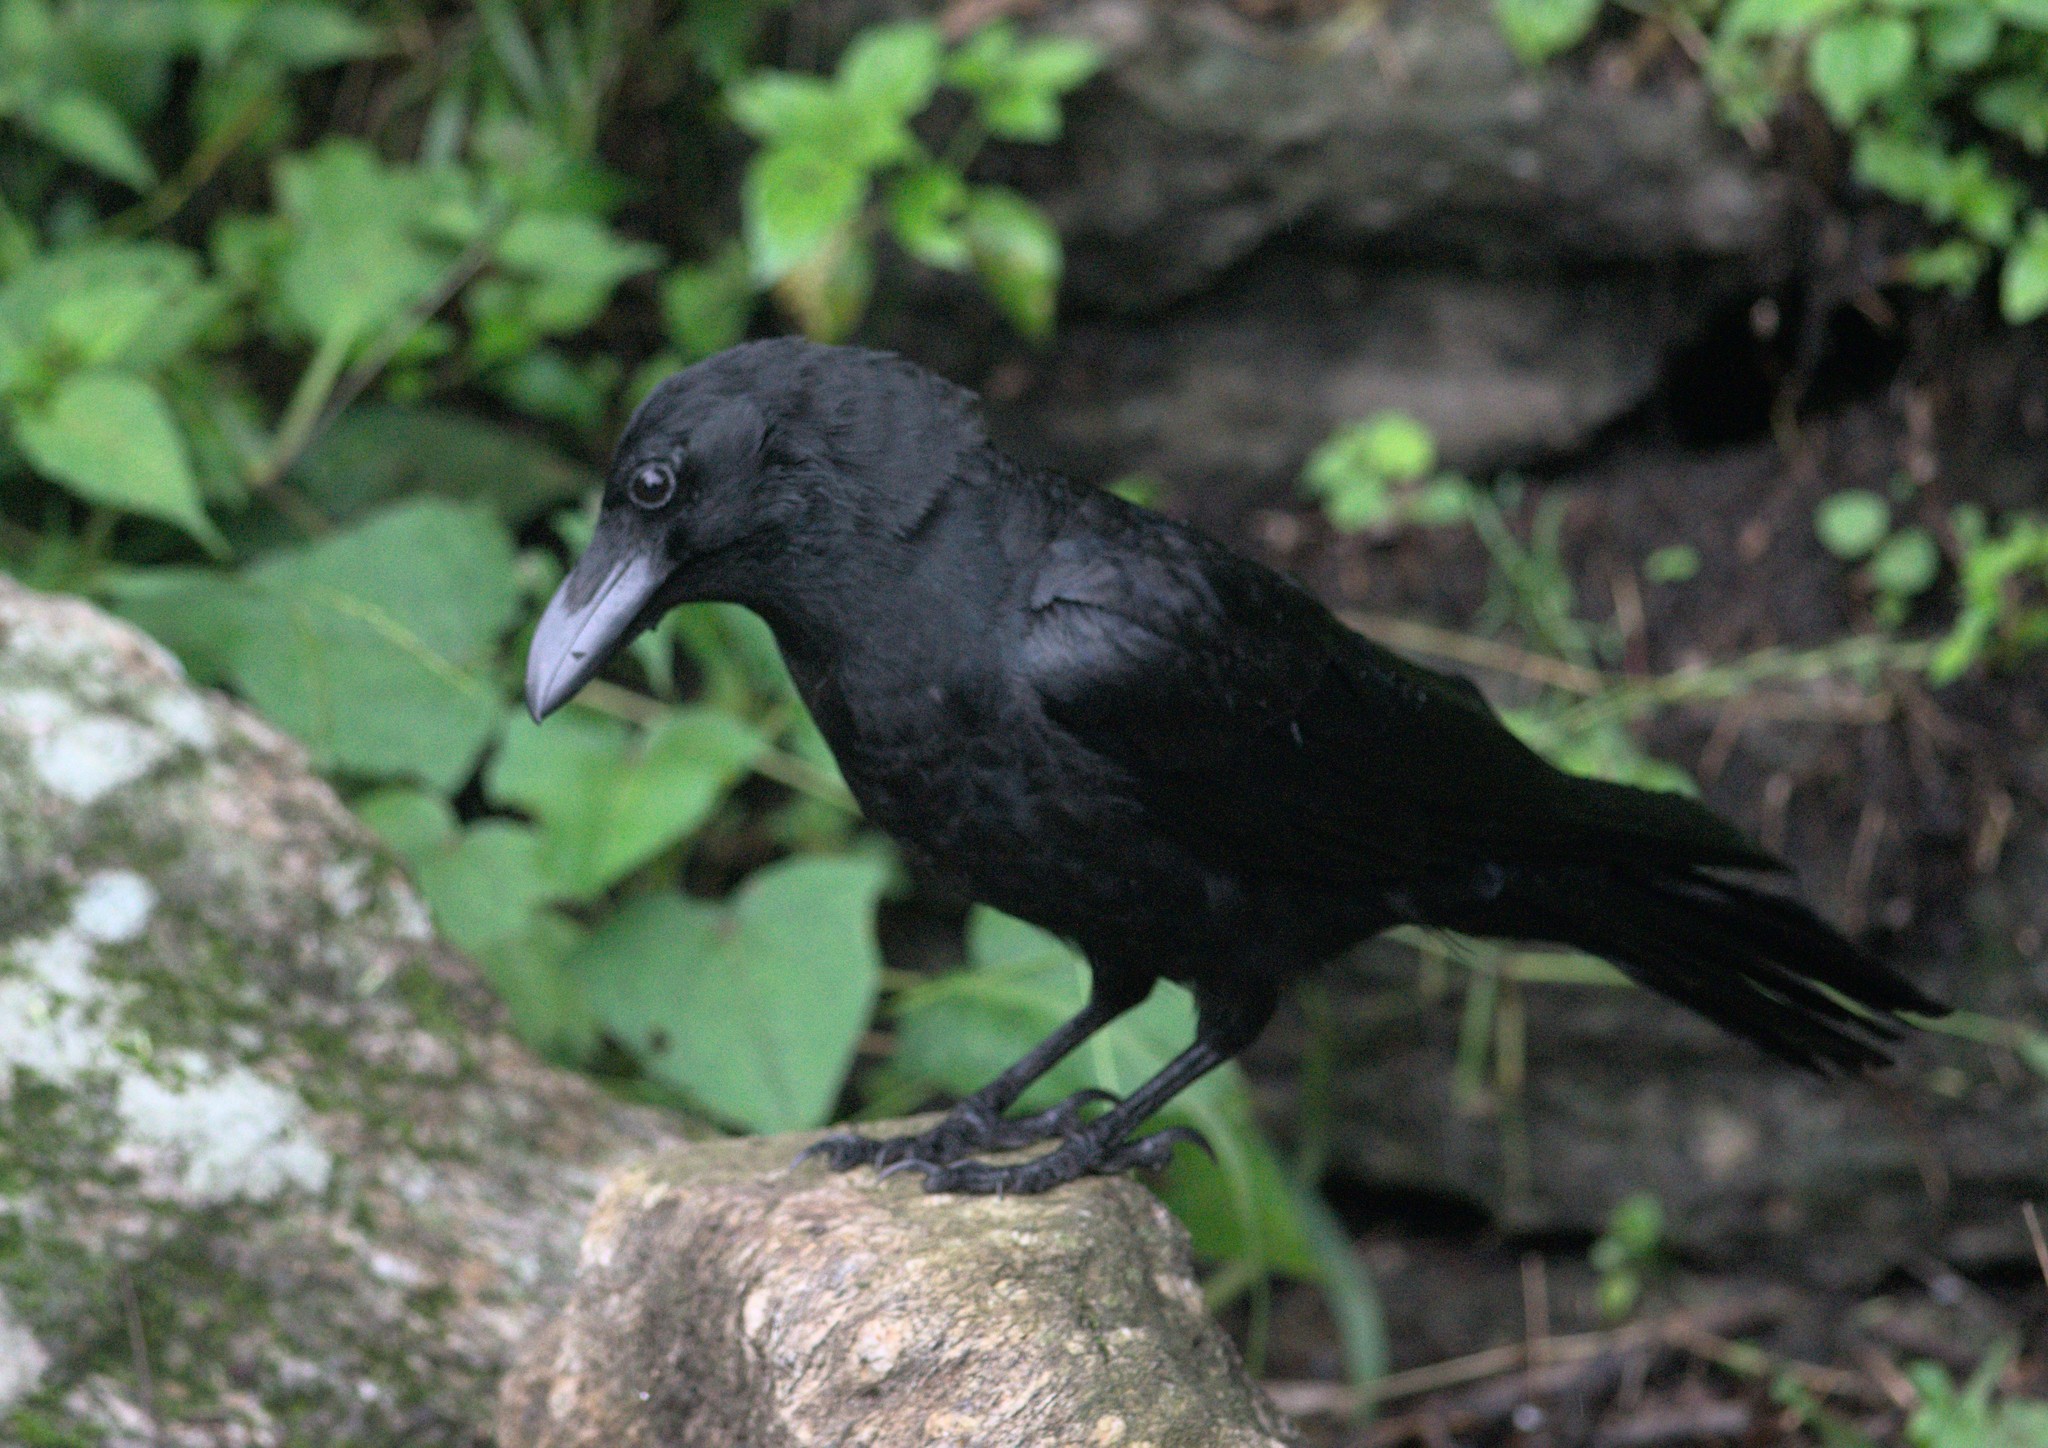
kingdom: Animalia
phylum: Chordata
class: Aves
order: Passeriformes
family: Corvidae
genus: Corvus
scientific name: Corvus macrorhynchos
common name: Large-billed crow
